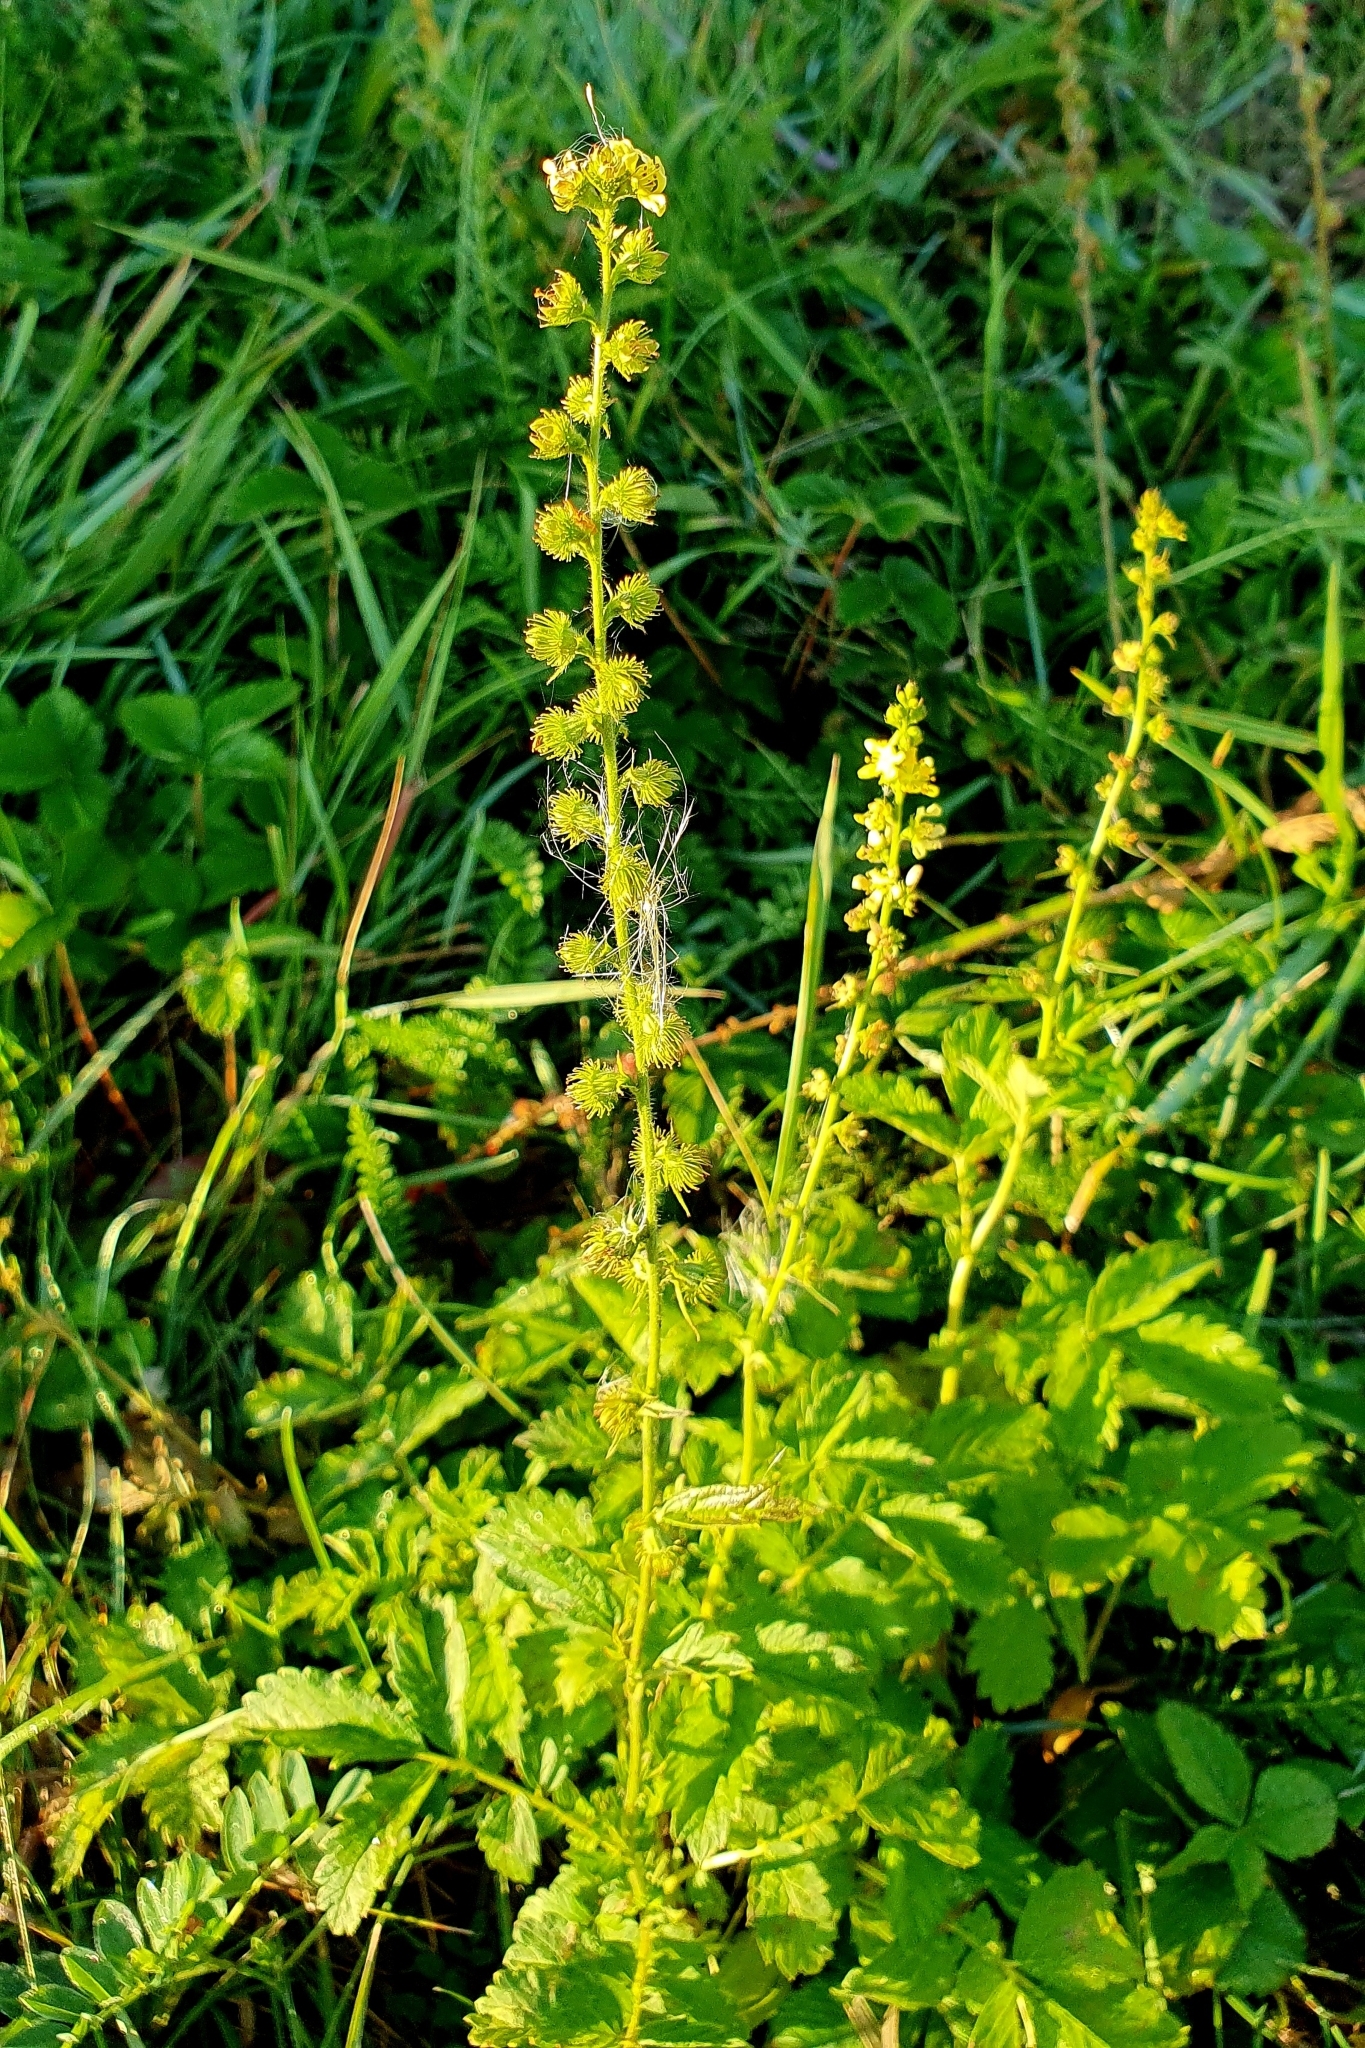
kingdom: Plantae
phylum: Tracheophyta
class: Magnoliopsida
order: Rosales
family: Rosaceae
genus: Agrimonia
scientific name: Agrimonia eupatoria
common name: Agrimony
